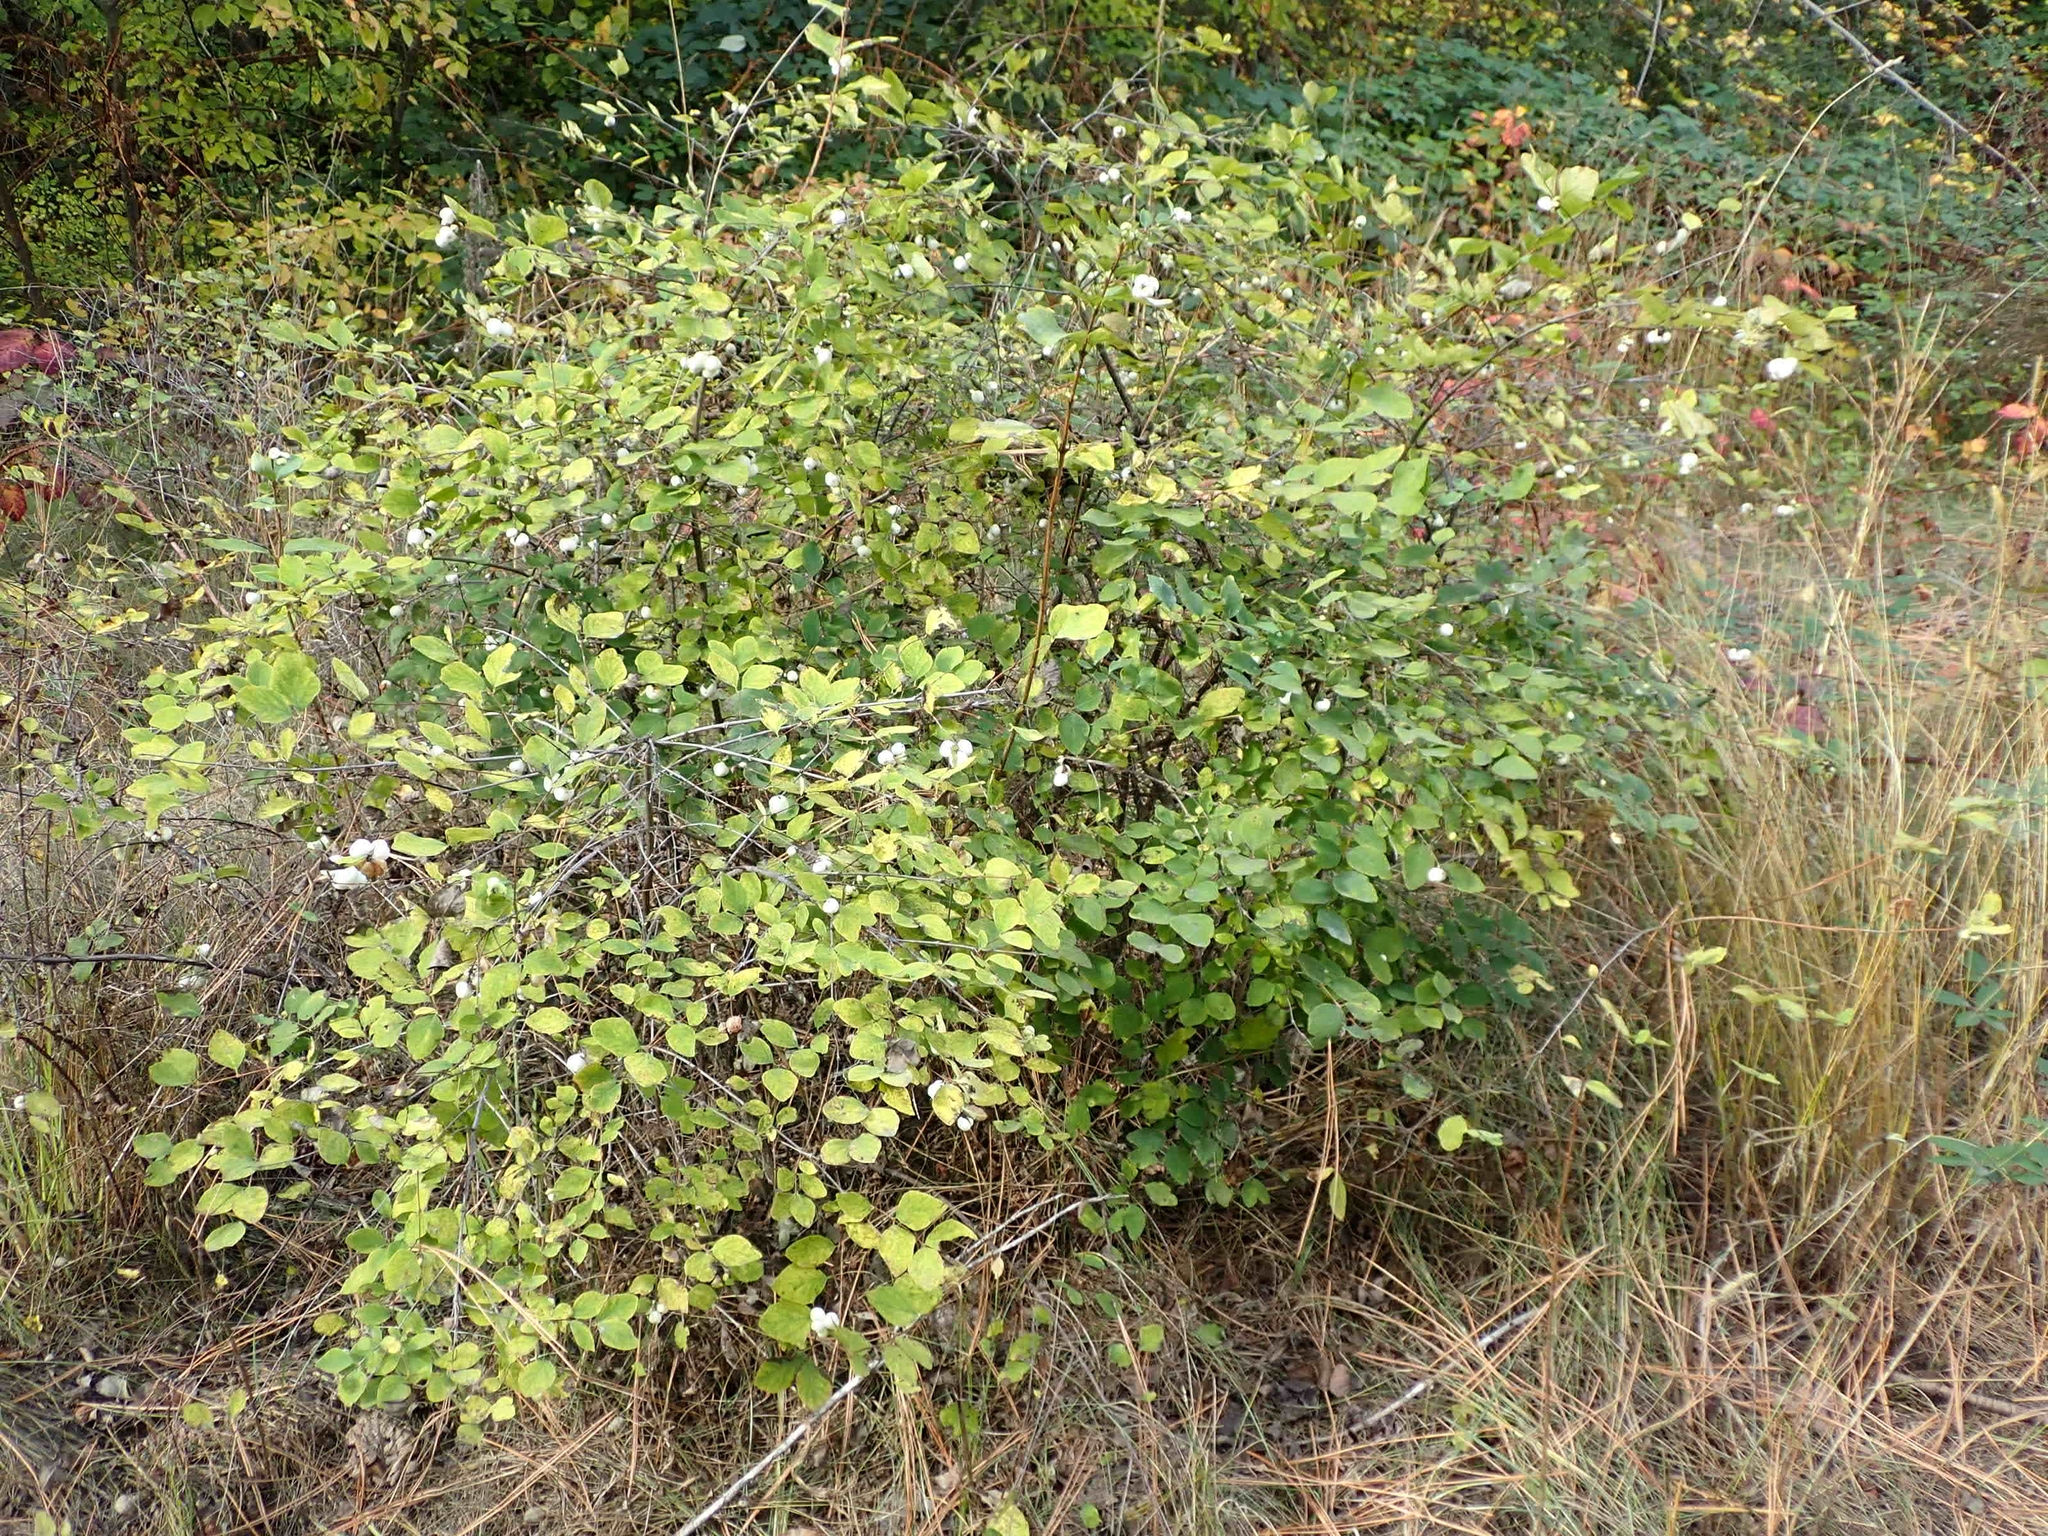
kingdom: Plantae
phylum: Tracheophyta
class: Magnoliopsida
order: Dipsacales
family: Caprifoliaceae
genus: Symphoricarpos
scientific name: Symphoricarpos albus
